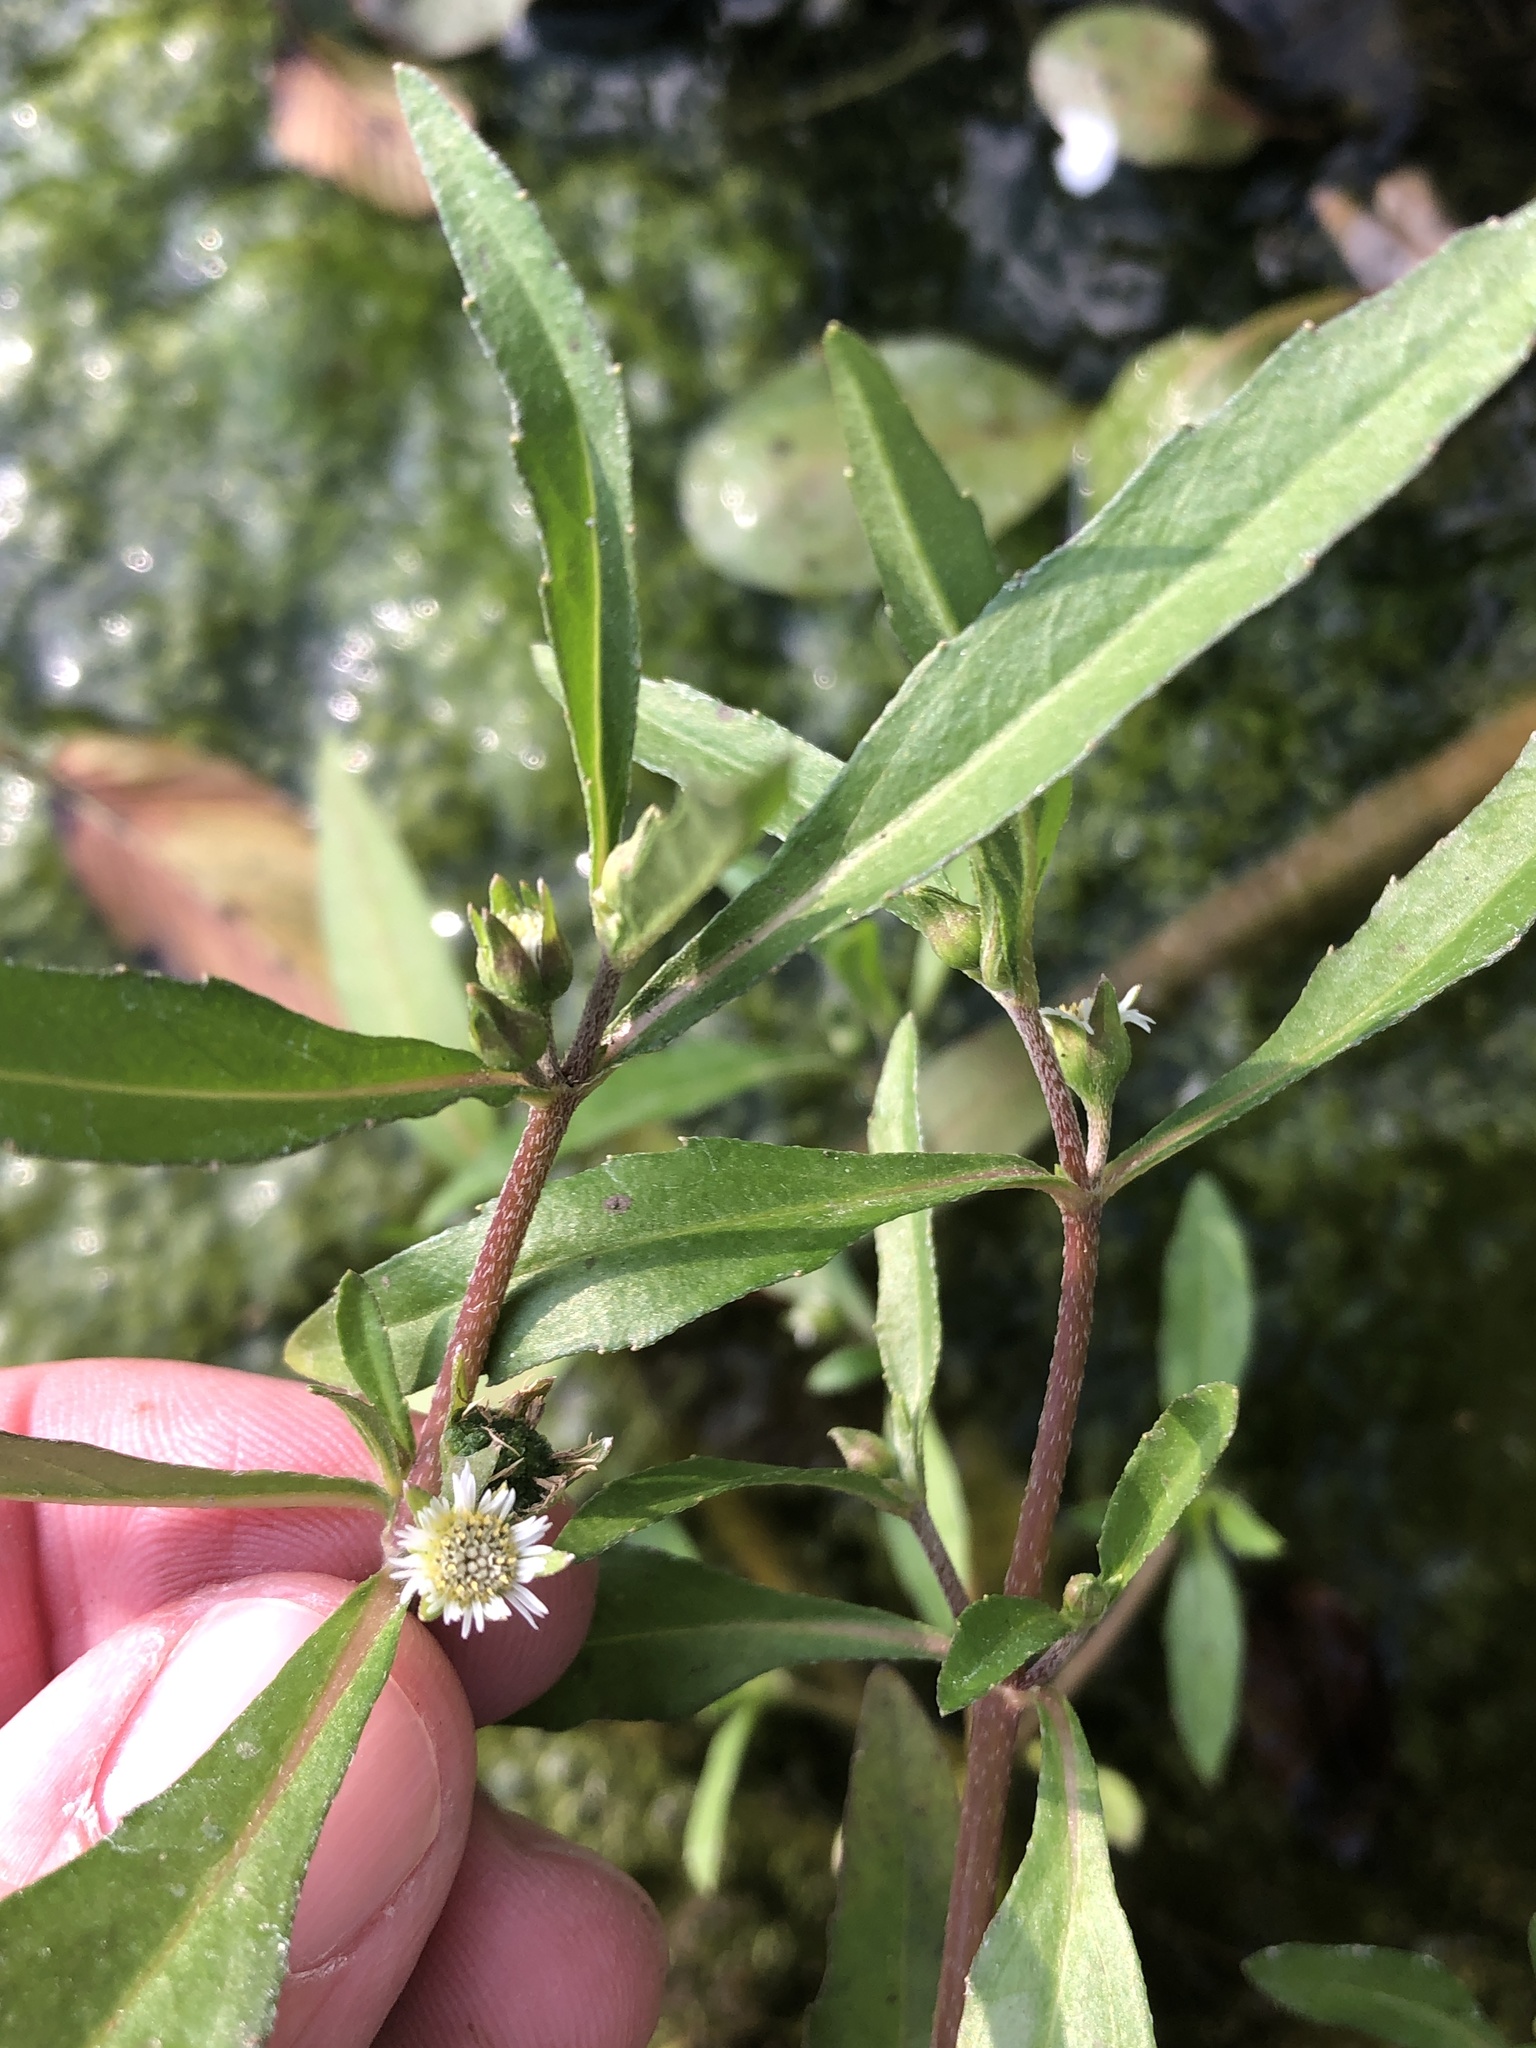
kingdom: Plantae
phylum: Tracheophyta
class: Magnoliopsida
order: Asterales
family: Asteraceae
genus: Eclipta
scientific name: Eclipta prostrata
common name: False daisy
